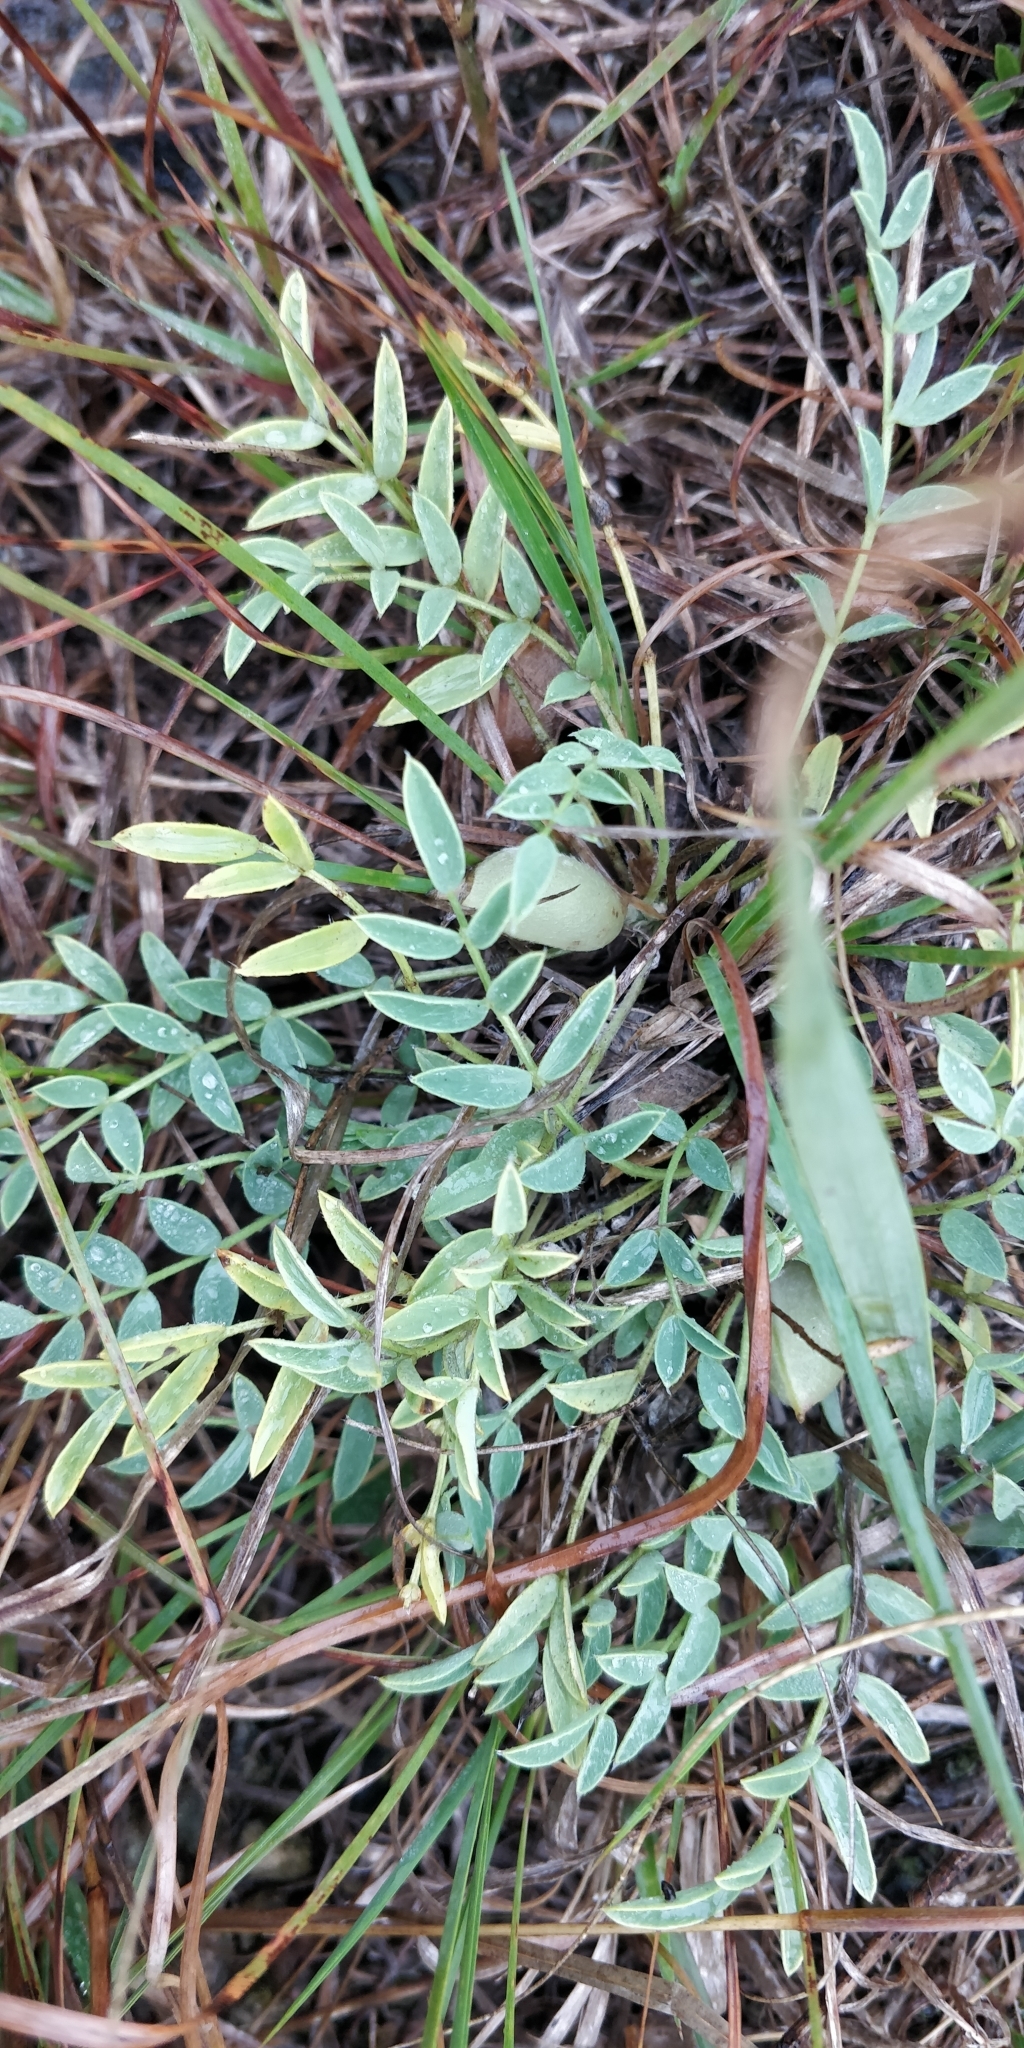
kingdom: Plantae
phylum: Tracheophyta
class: Magnoliopsida
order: Fabales
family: Fabaceae
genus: Astragalus
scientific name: Astragalus lotiflorus
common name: Lotus milk-vetch
